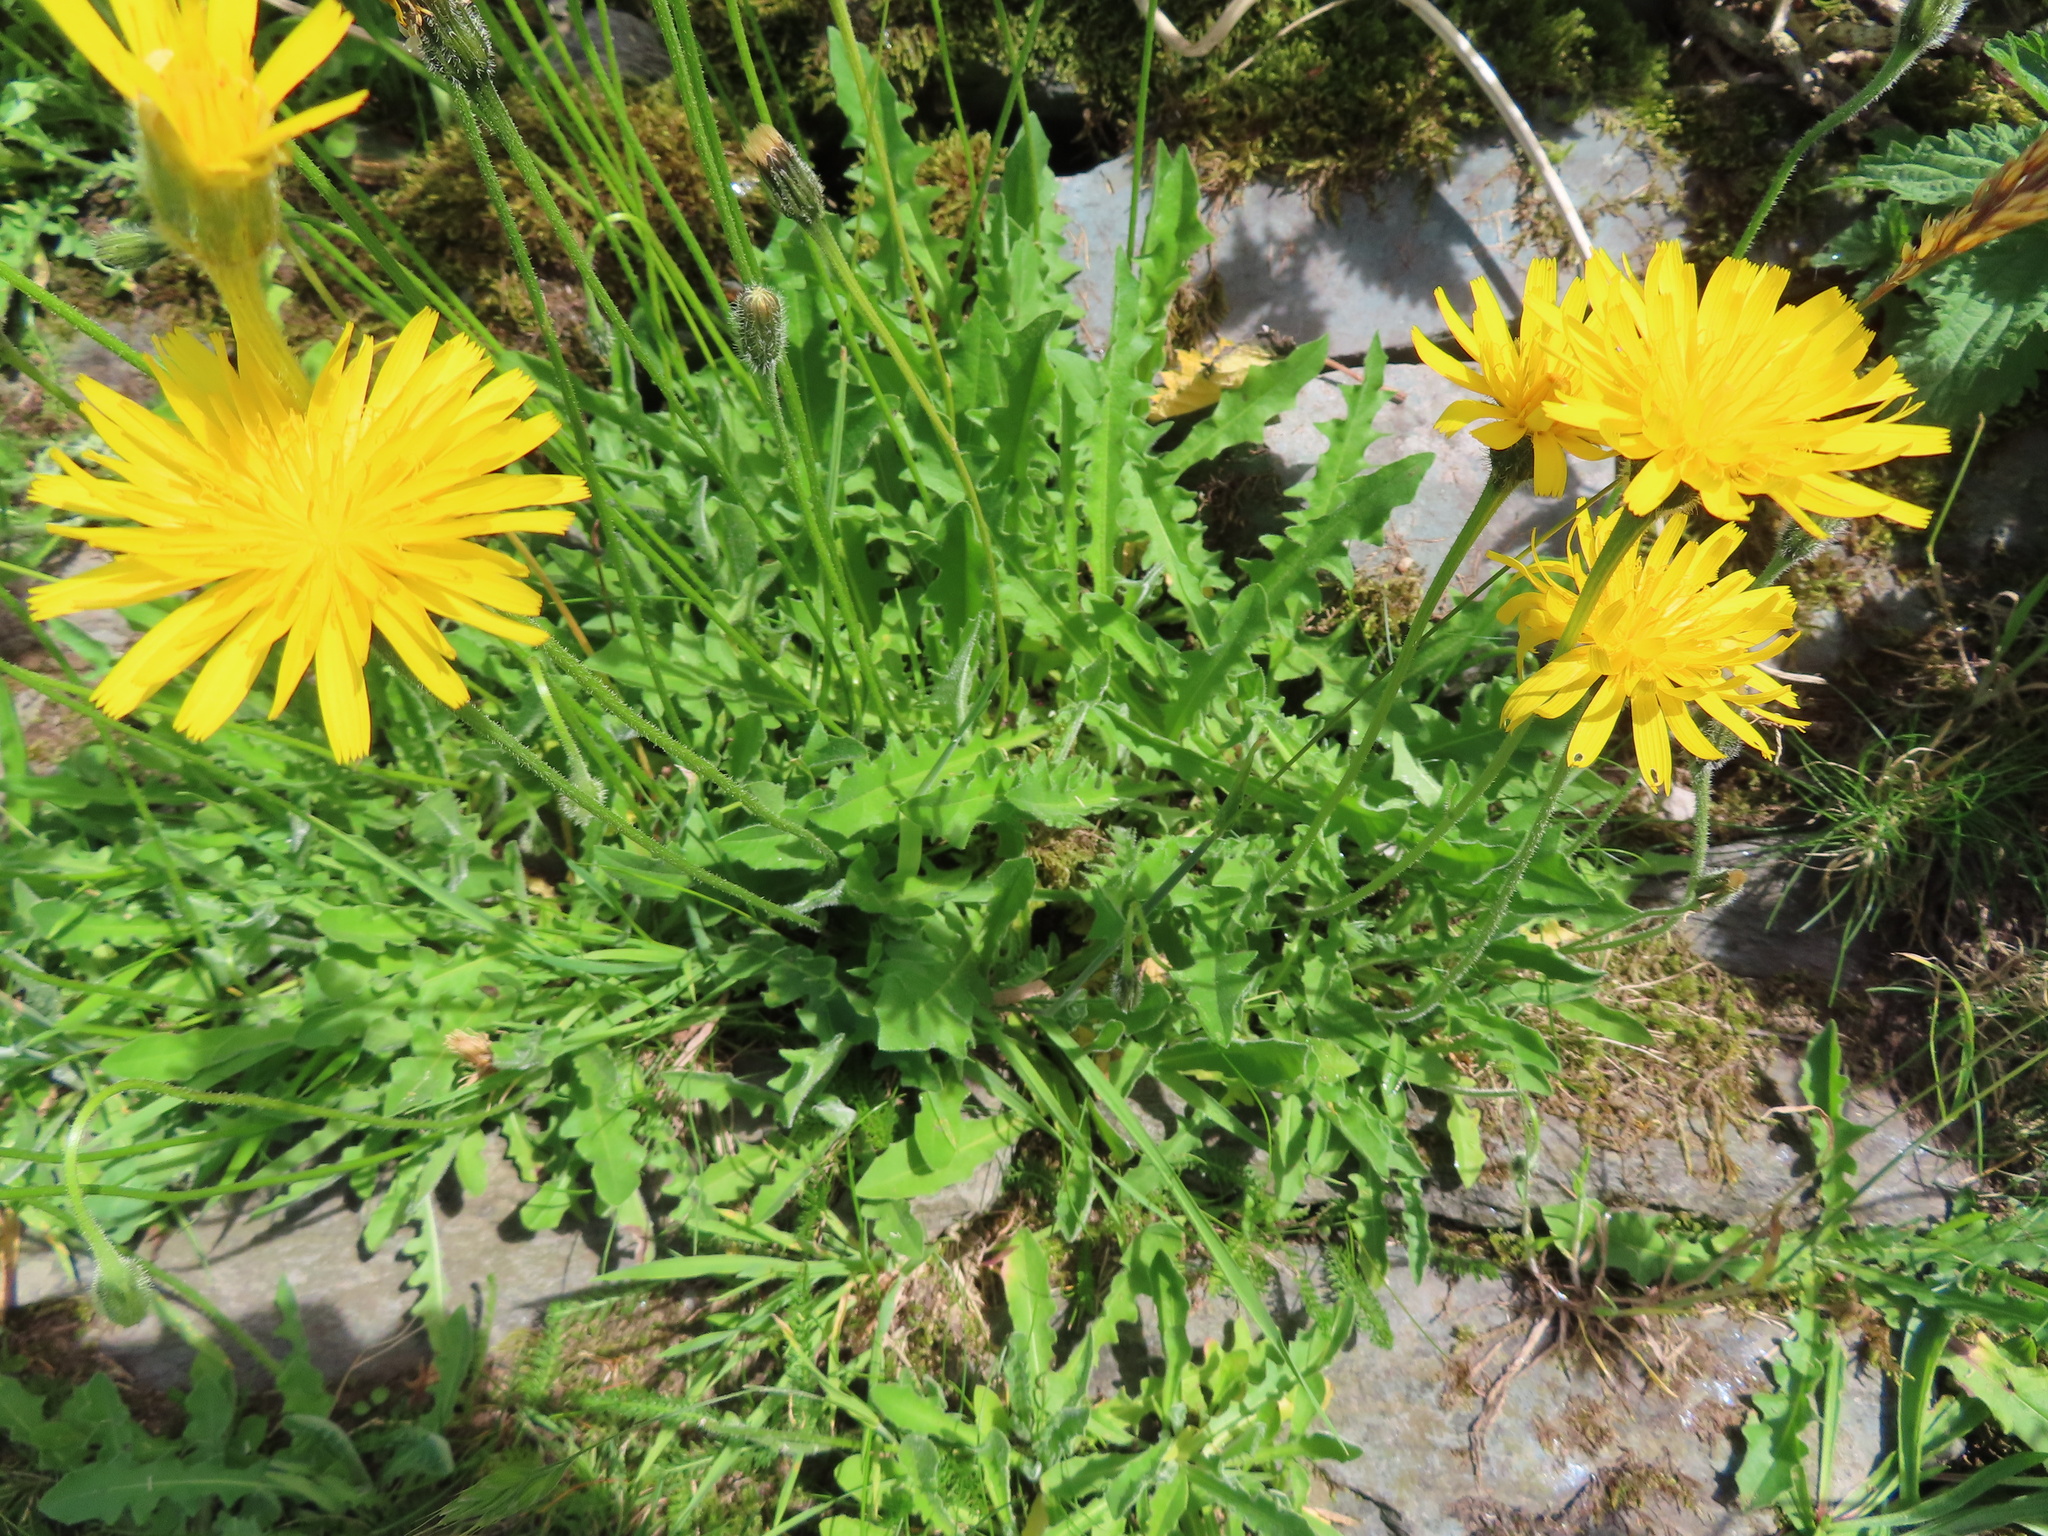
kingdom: Plantae
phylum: Tracheophyta
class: Magnoliopsida
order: Asterales
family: Asteraceae
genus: Leontodon
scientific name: Leontodon hispidus
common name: Rough hawkbit
